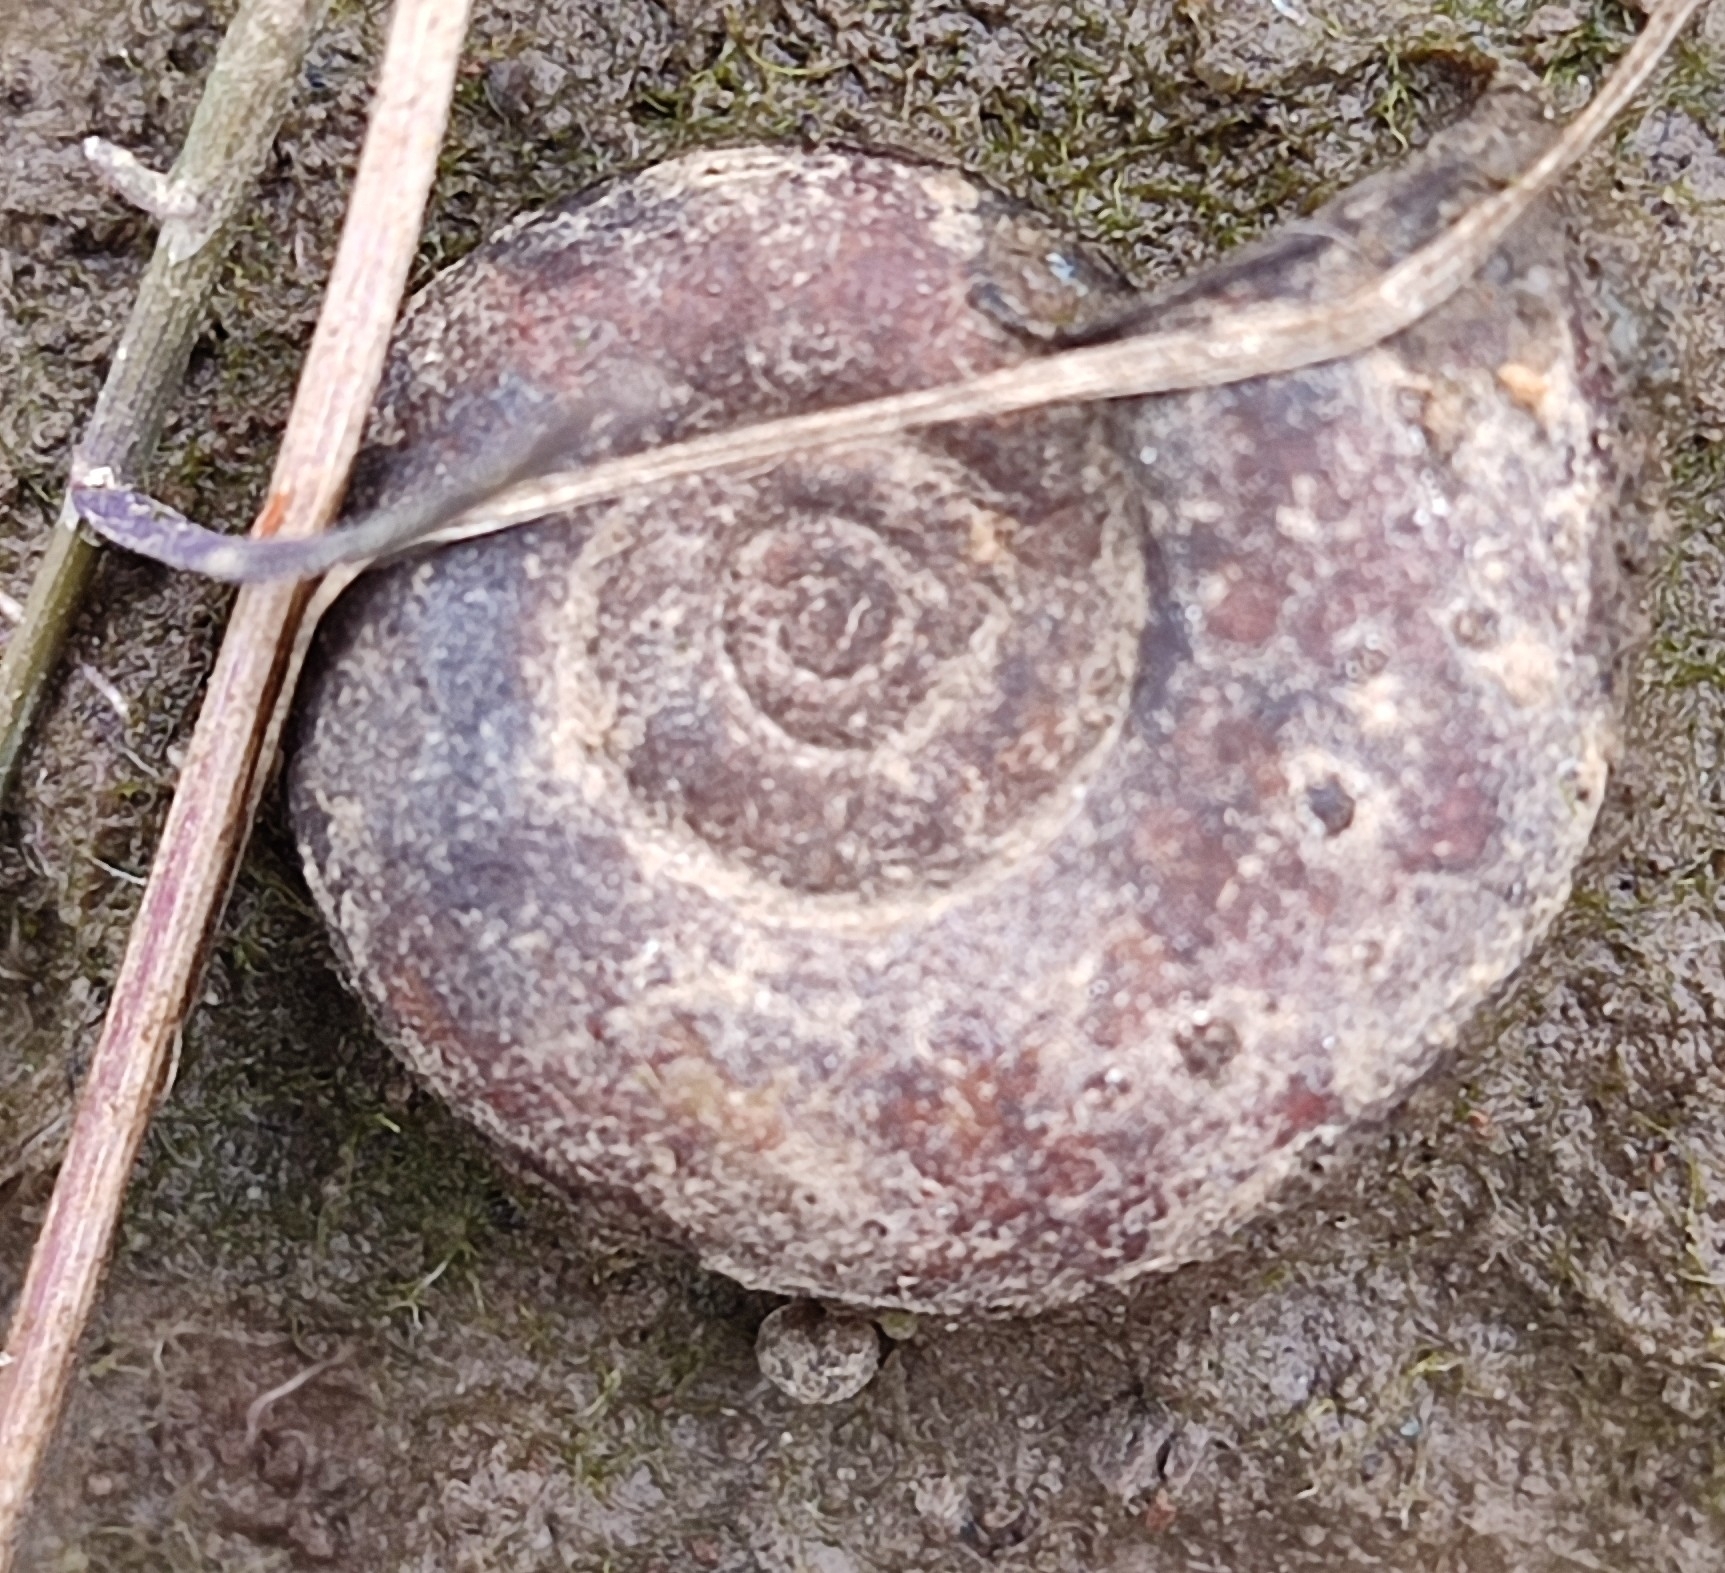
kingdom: Animalia
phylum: Mollusca
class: Gastropoda
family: Planorbidae
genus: Planorbarius
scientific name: Planorbarius corneus
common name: Great ramshorn
